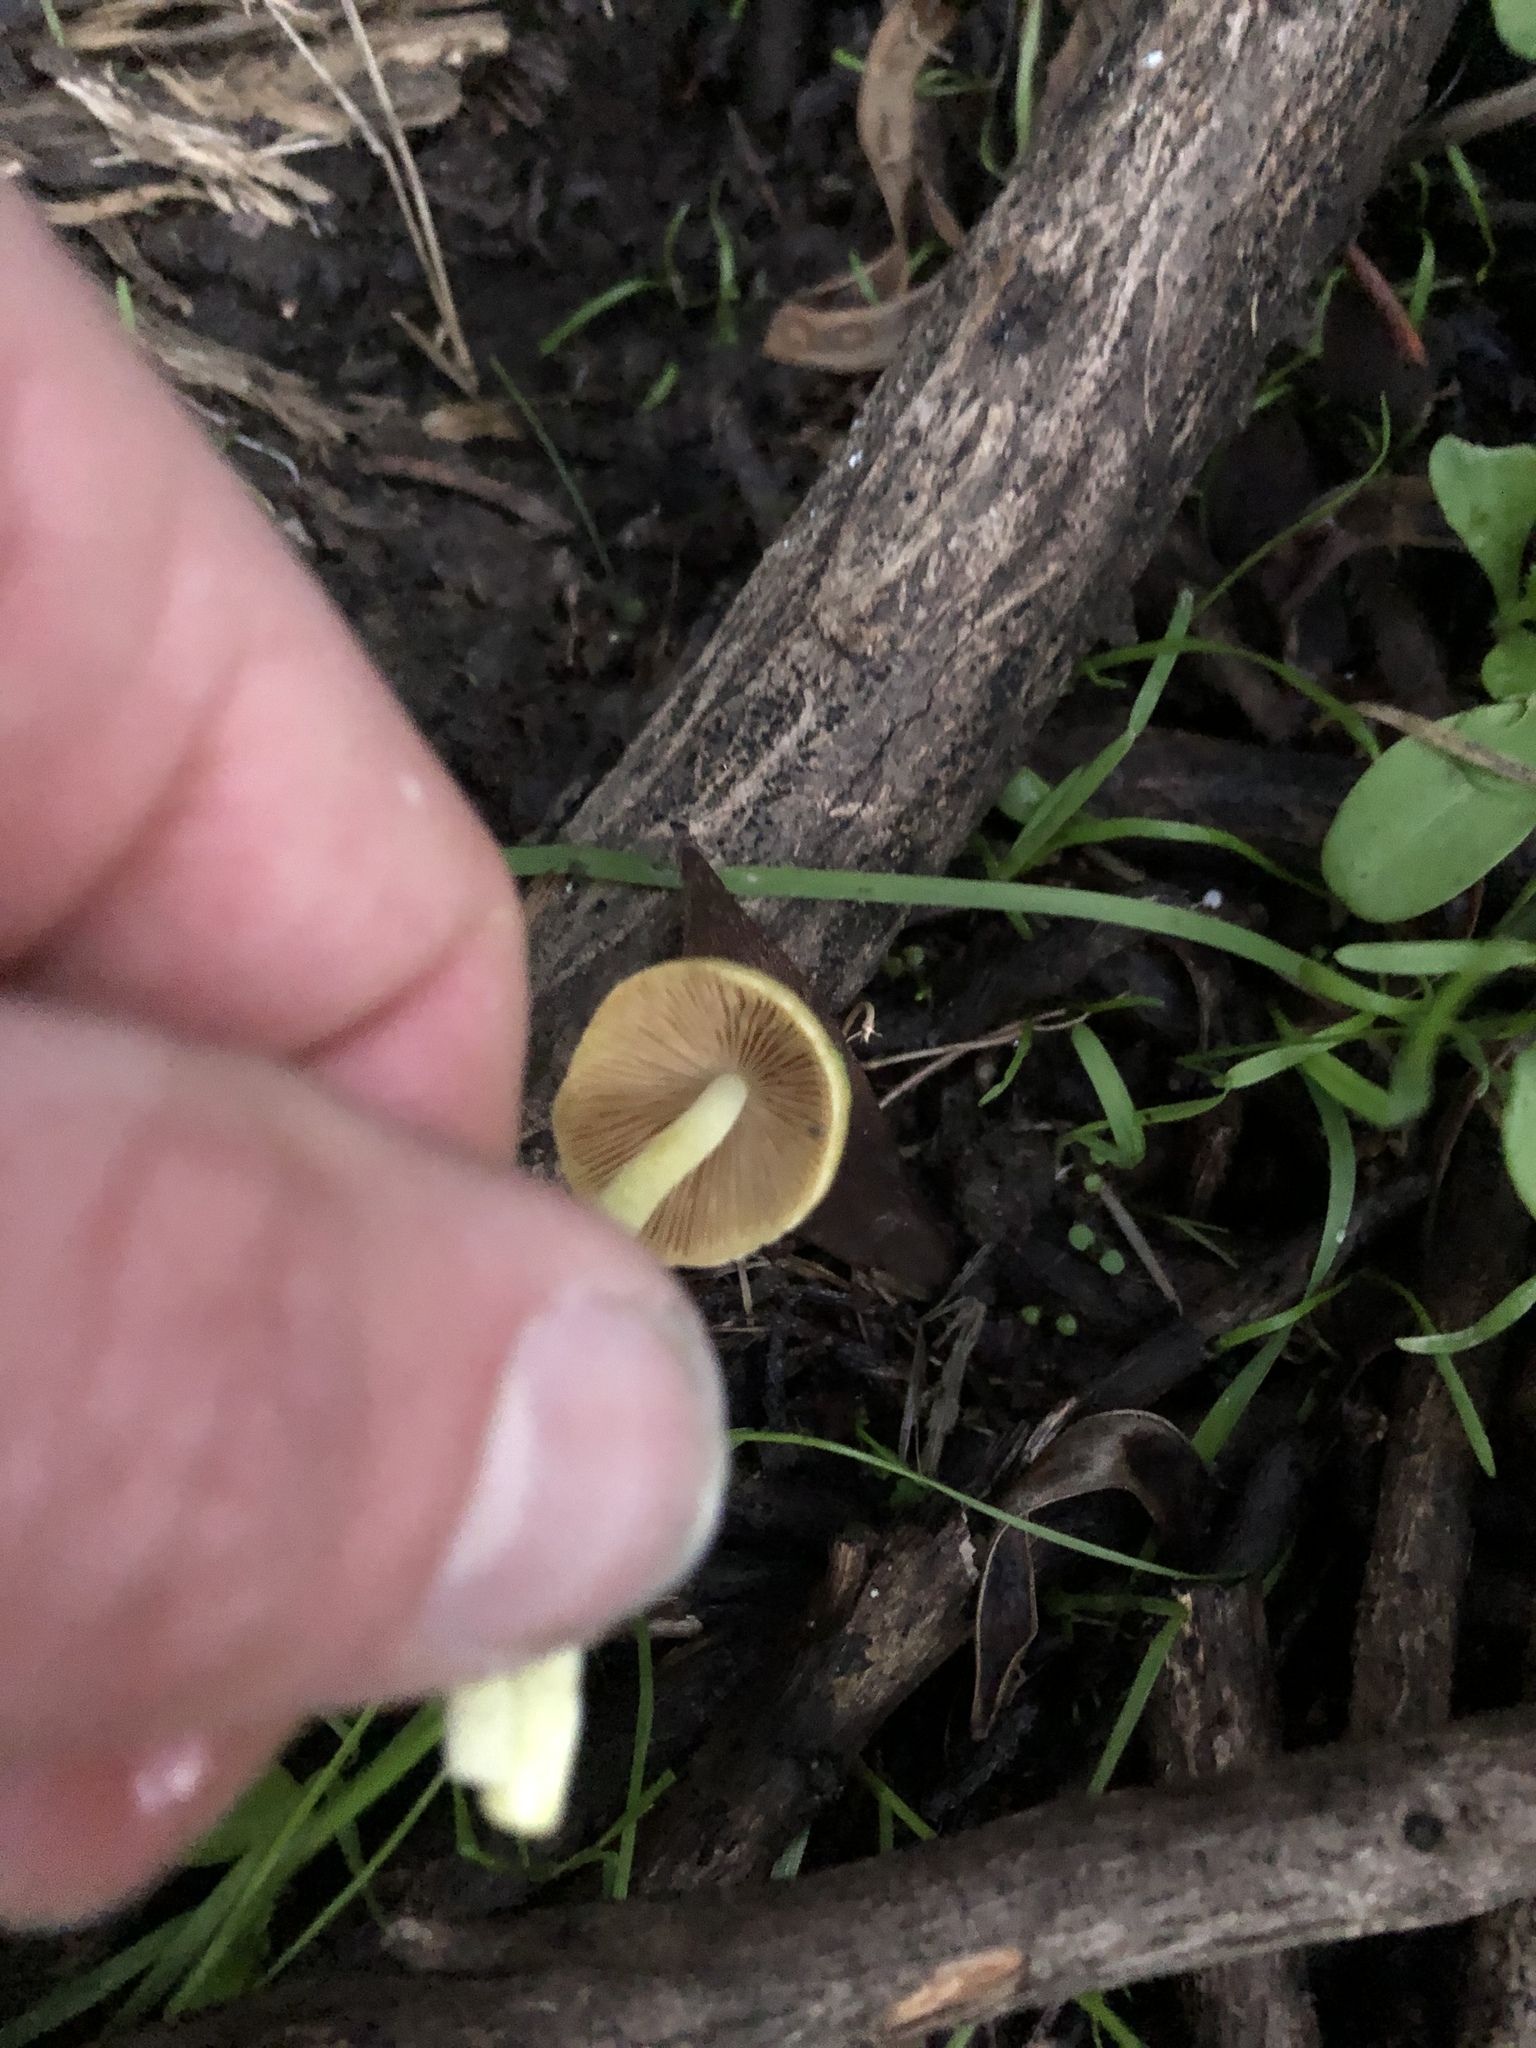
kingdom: Fungi
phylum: Basidiomycota
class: Agaricomycetes
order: Agaricales
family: Bolbitiaceae
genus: Bolbitius
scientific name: Bolbitius titubans
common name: Yellow fieldcap
